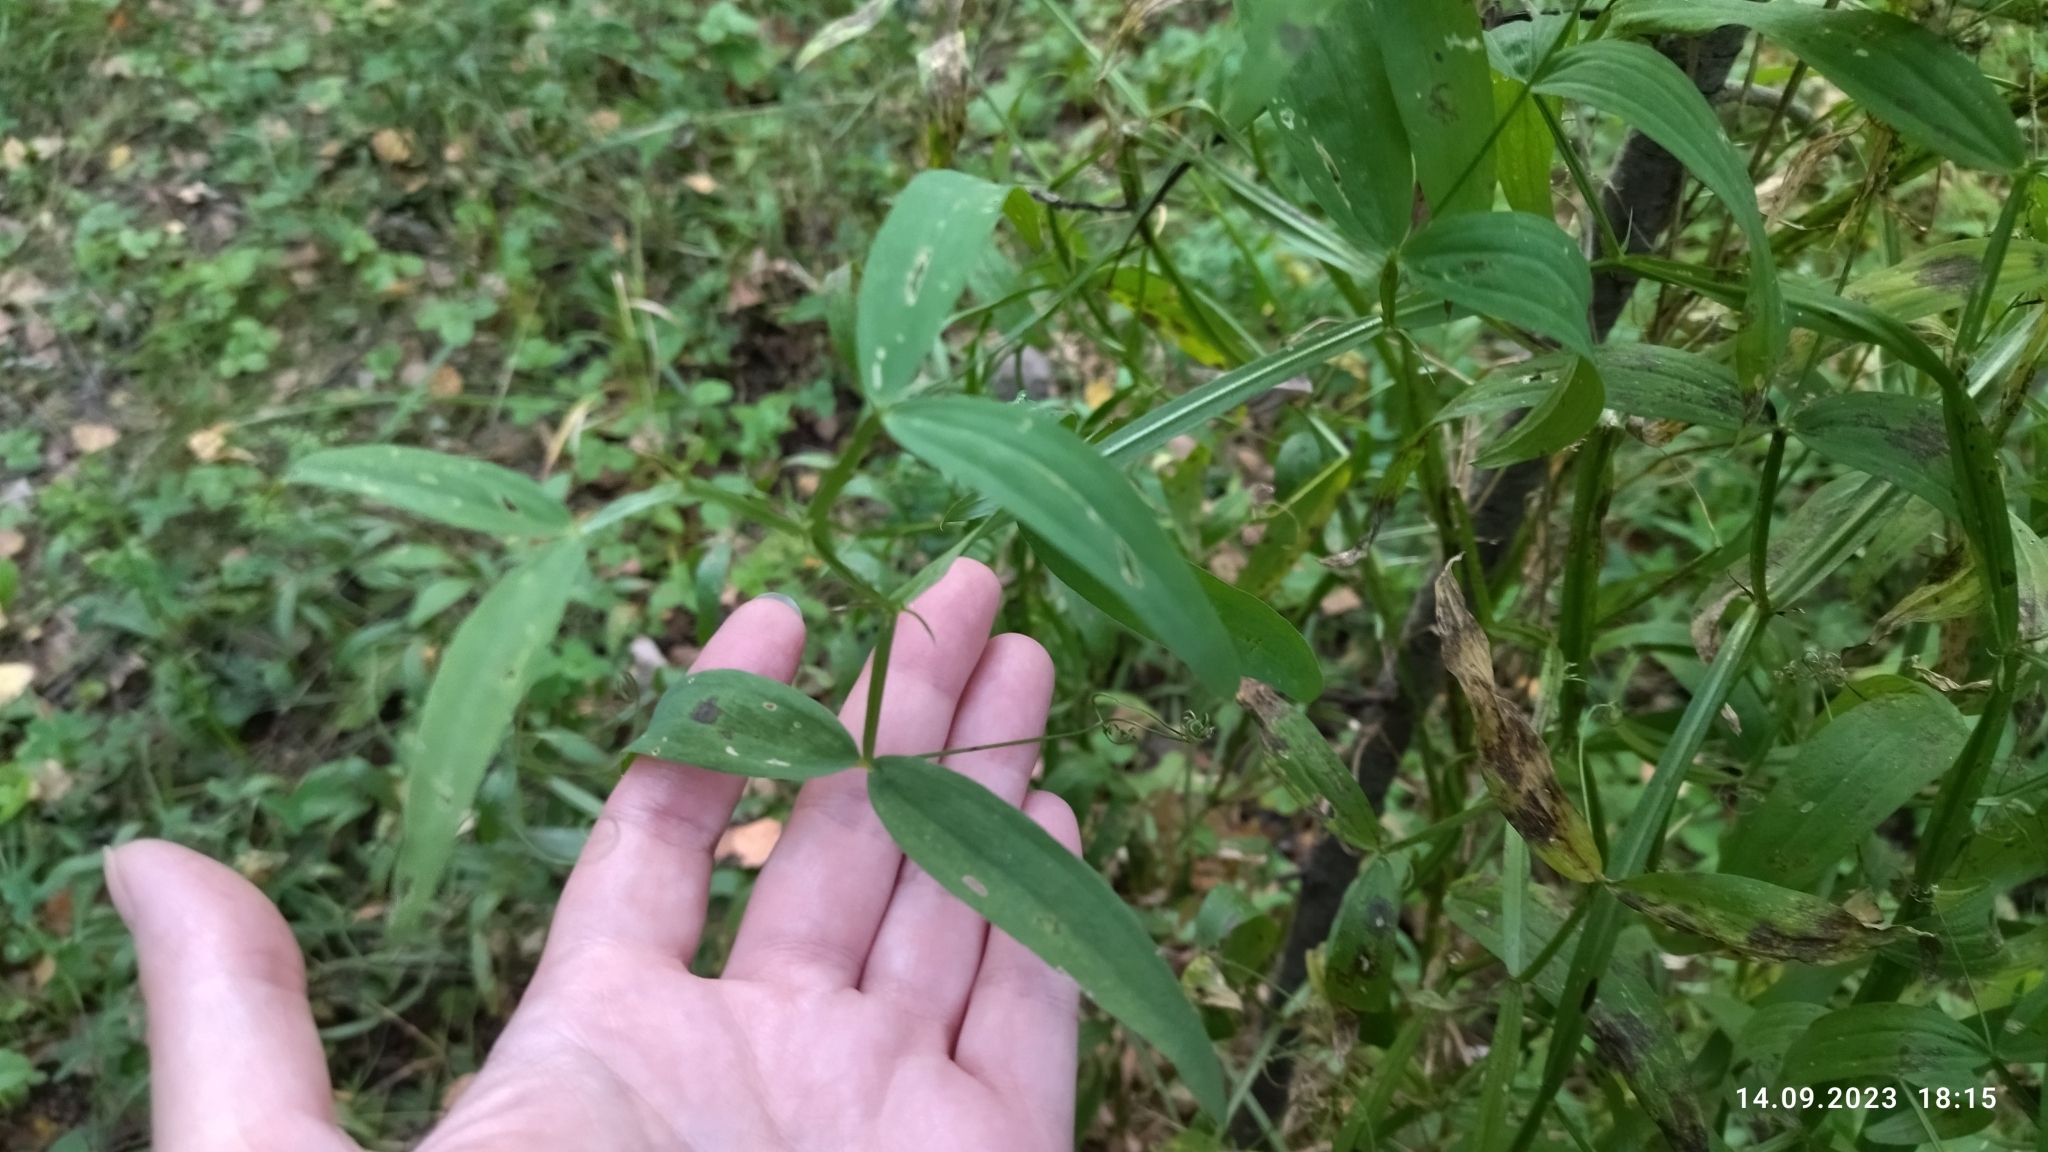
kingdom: Plantae
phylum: Tracheophyta
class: Magnoliopsida
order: Fabales
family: Fabaceae
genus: Lathyrus
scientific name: Lathyrus sylvestris
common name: Flat pea
